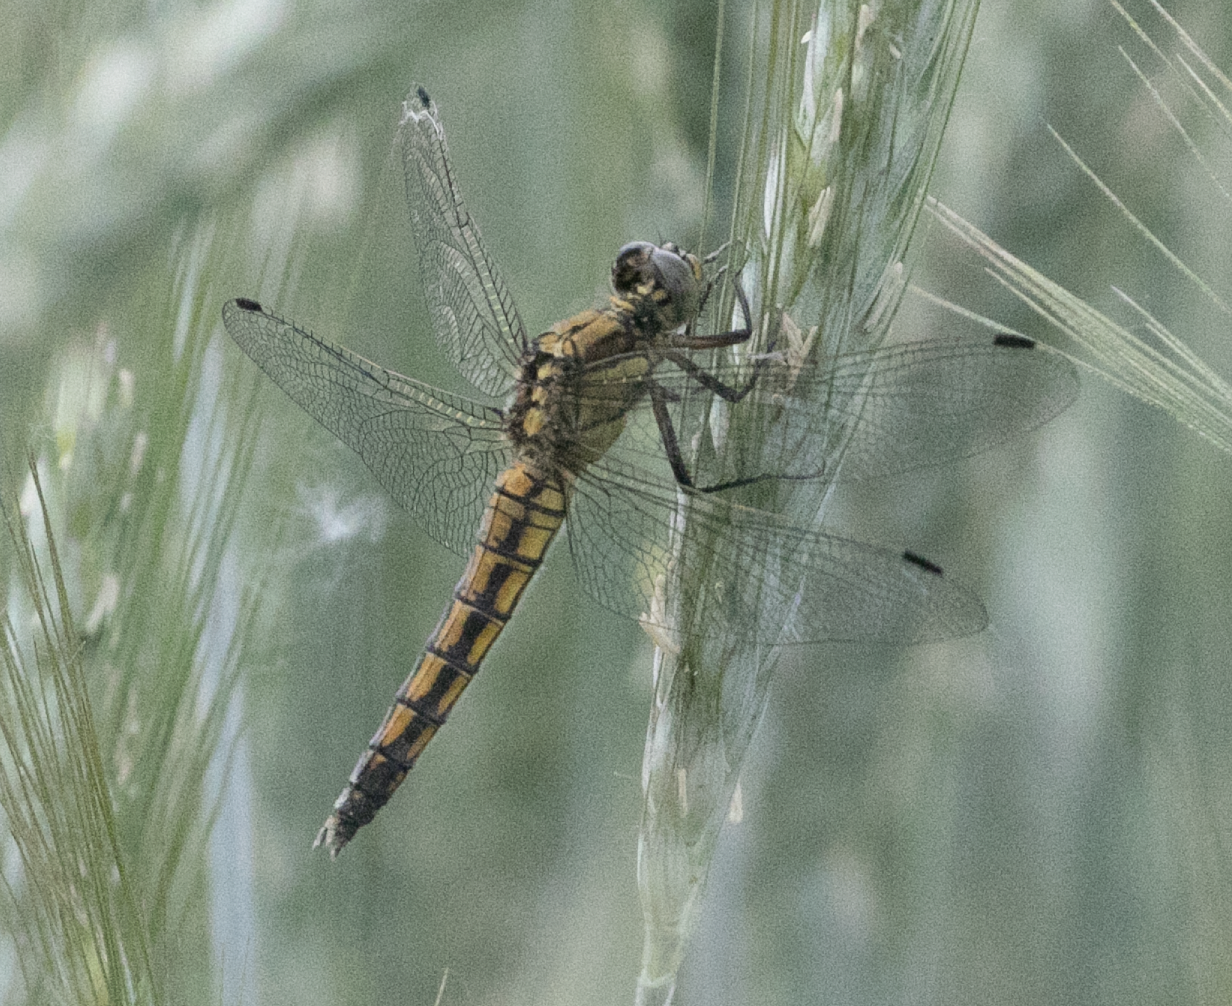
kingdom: Animalia
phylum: Arthropoda
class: Insecta
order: Odonata
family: Libellulidae
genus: Orthetrum
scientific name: Orthetrum cancellatum
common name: Black-tailed skimmer
